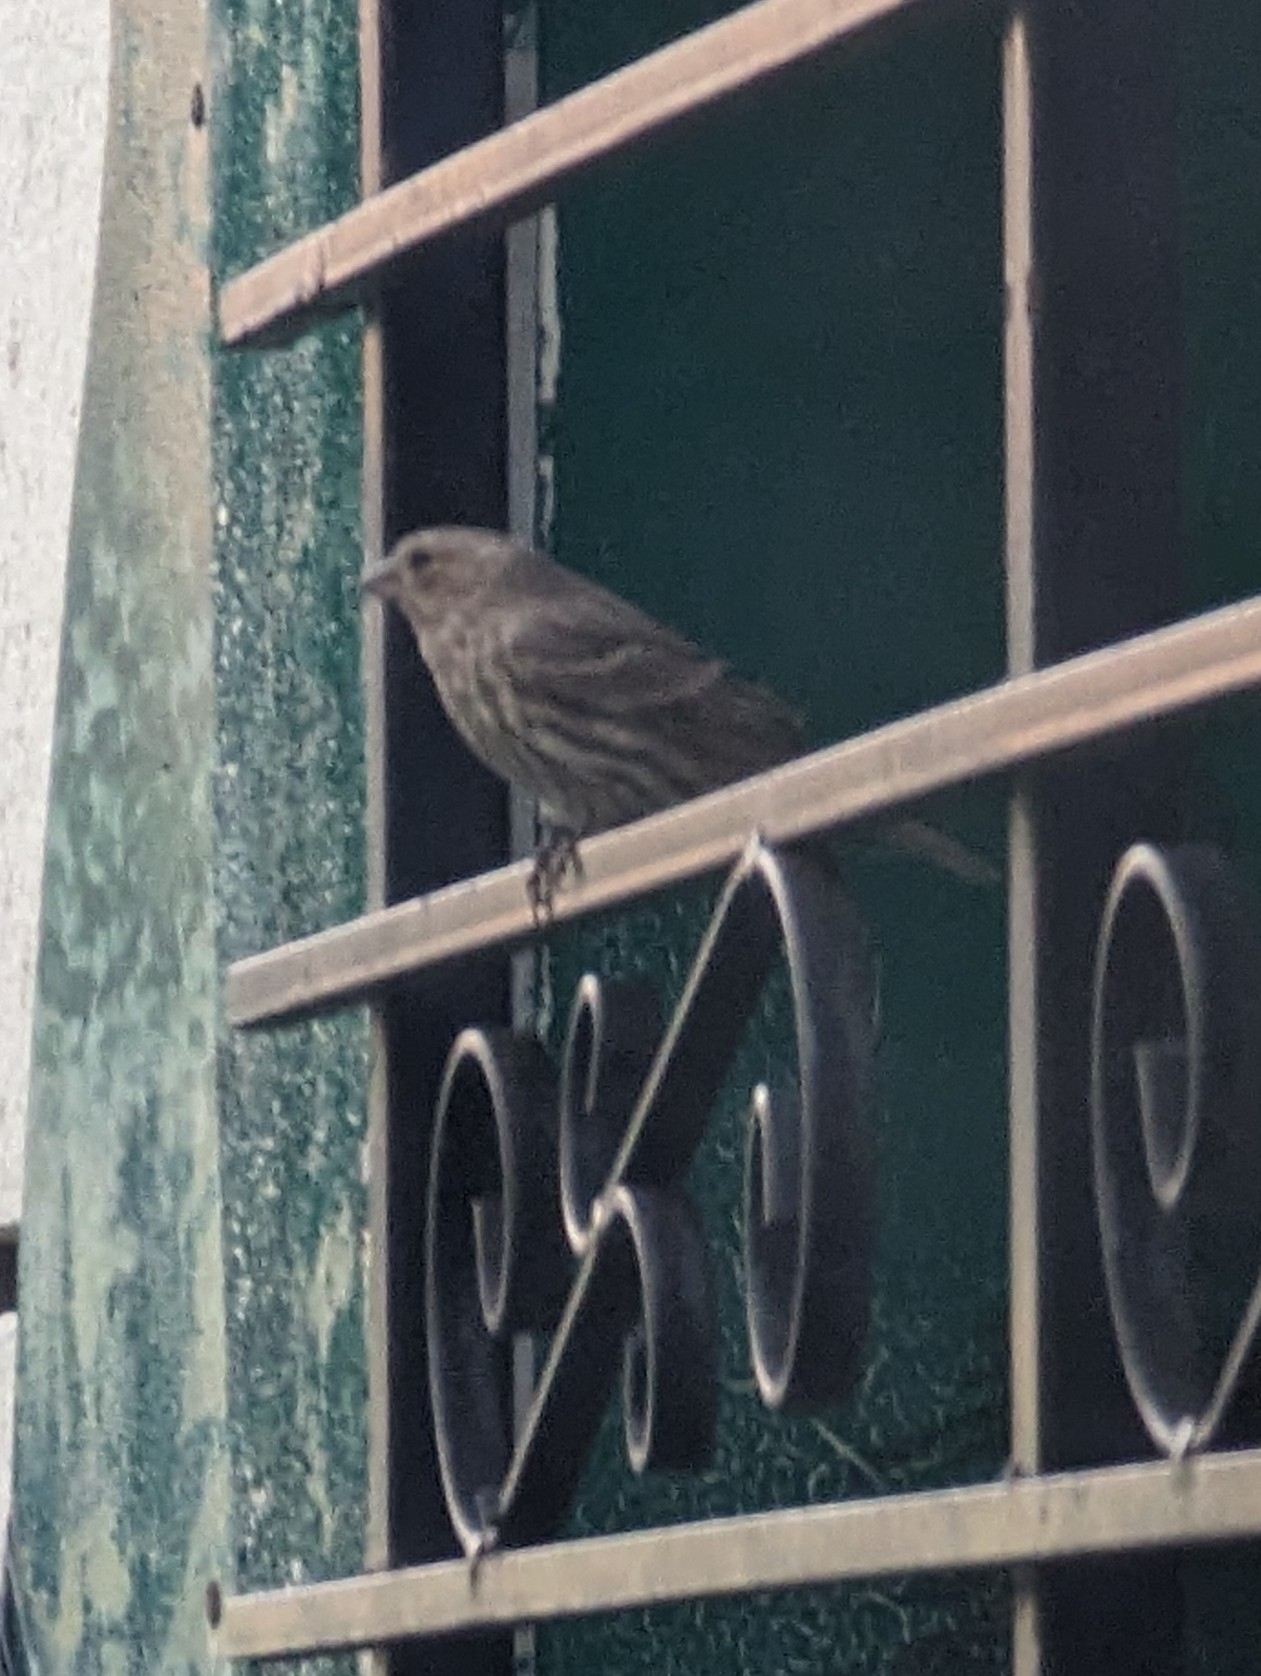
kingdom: Animalia
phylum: Chordata
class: Aves
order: Passeriformes
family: Fringillidae
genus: Haemorhous
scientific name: Haemorhous mexicanus
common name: House finch
